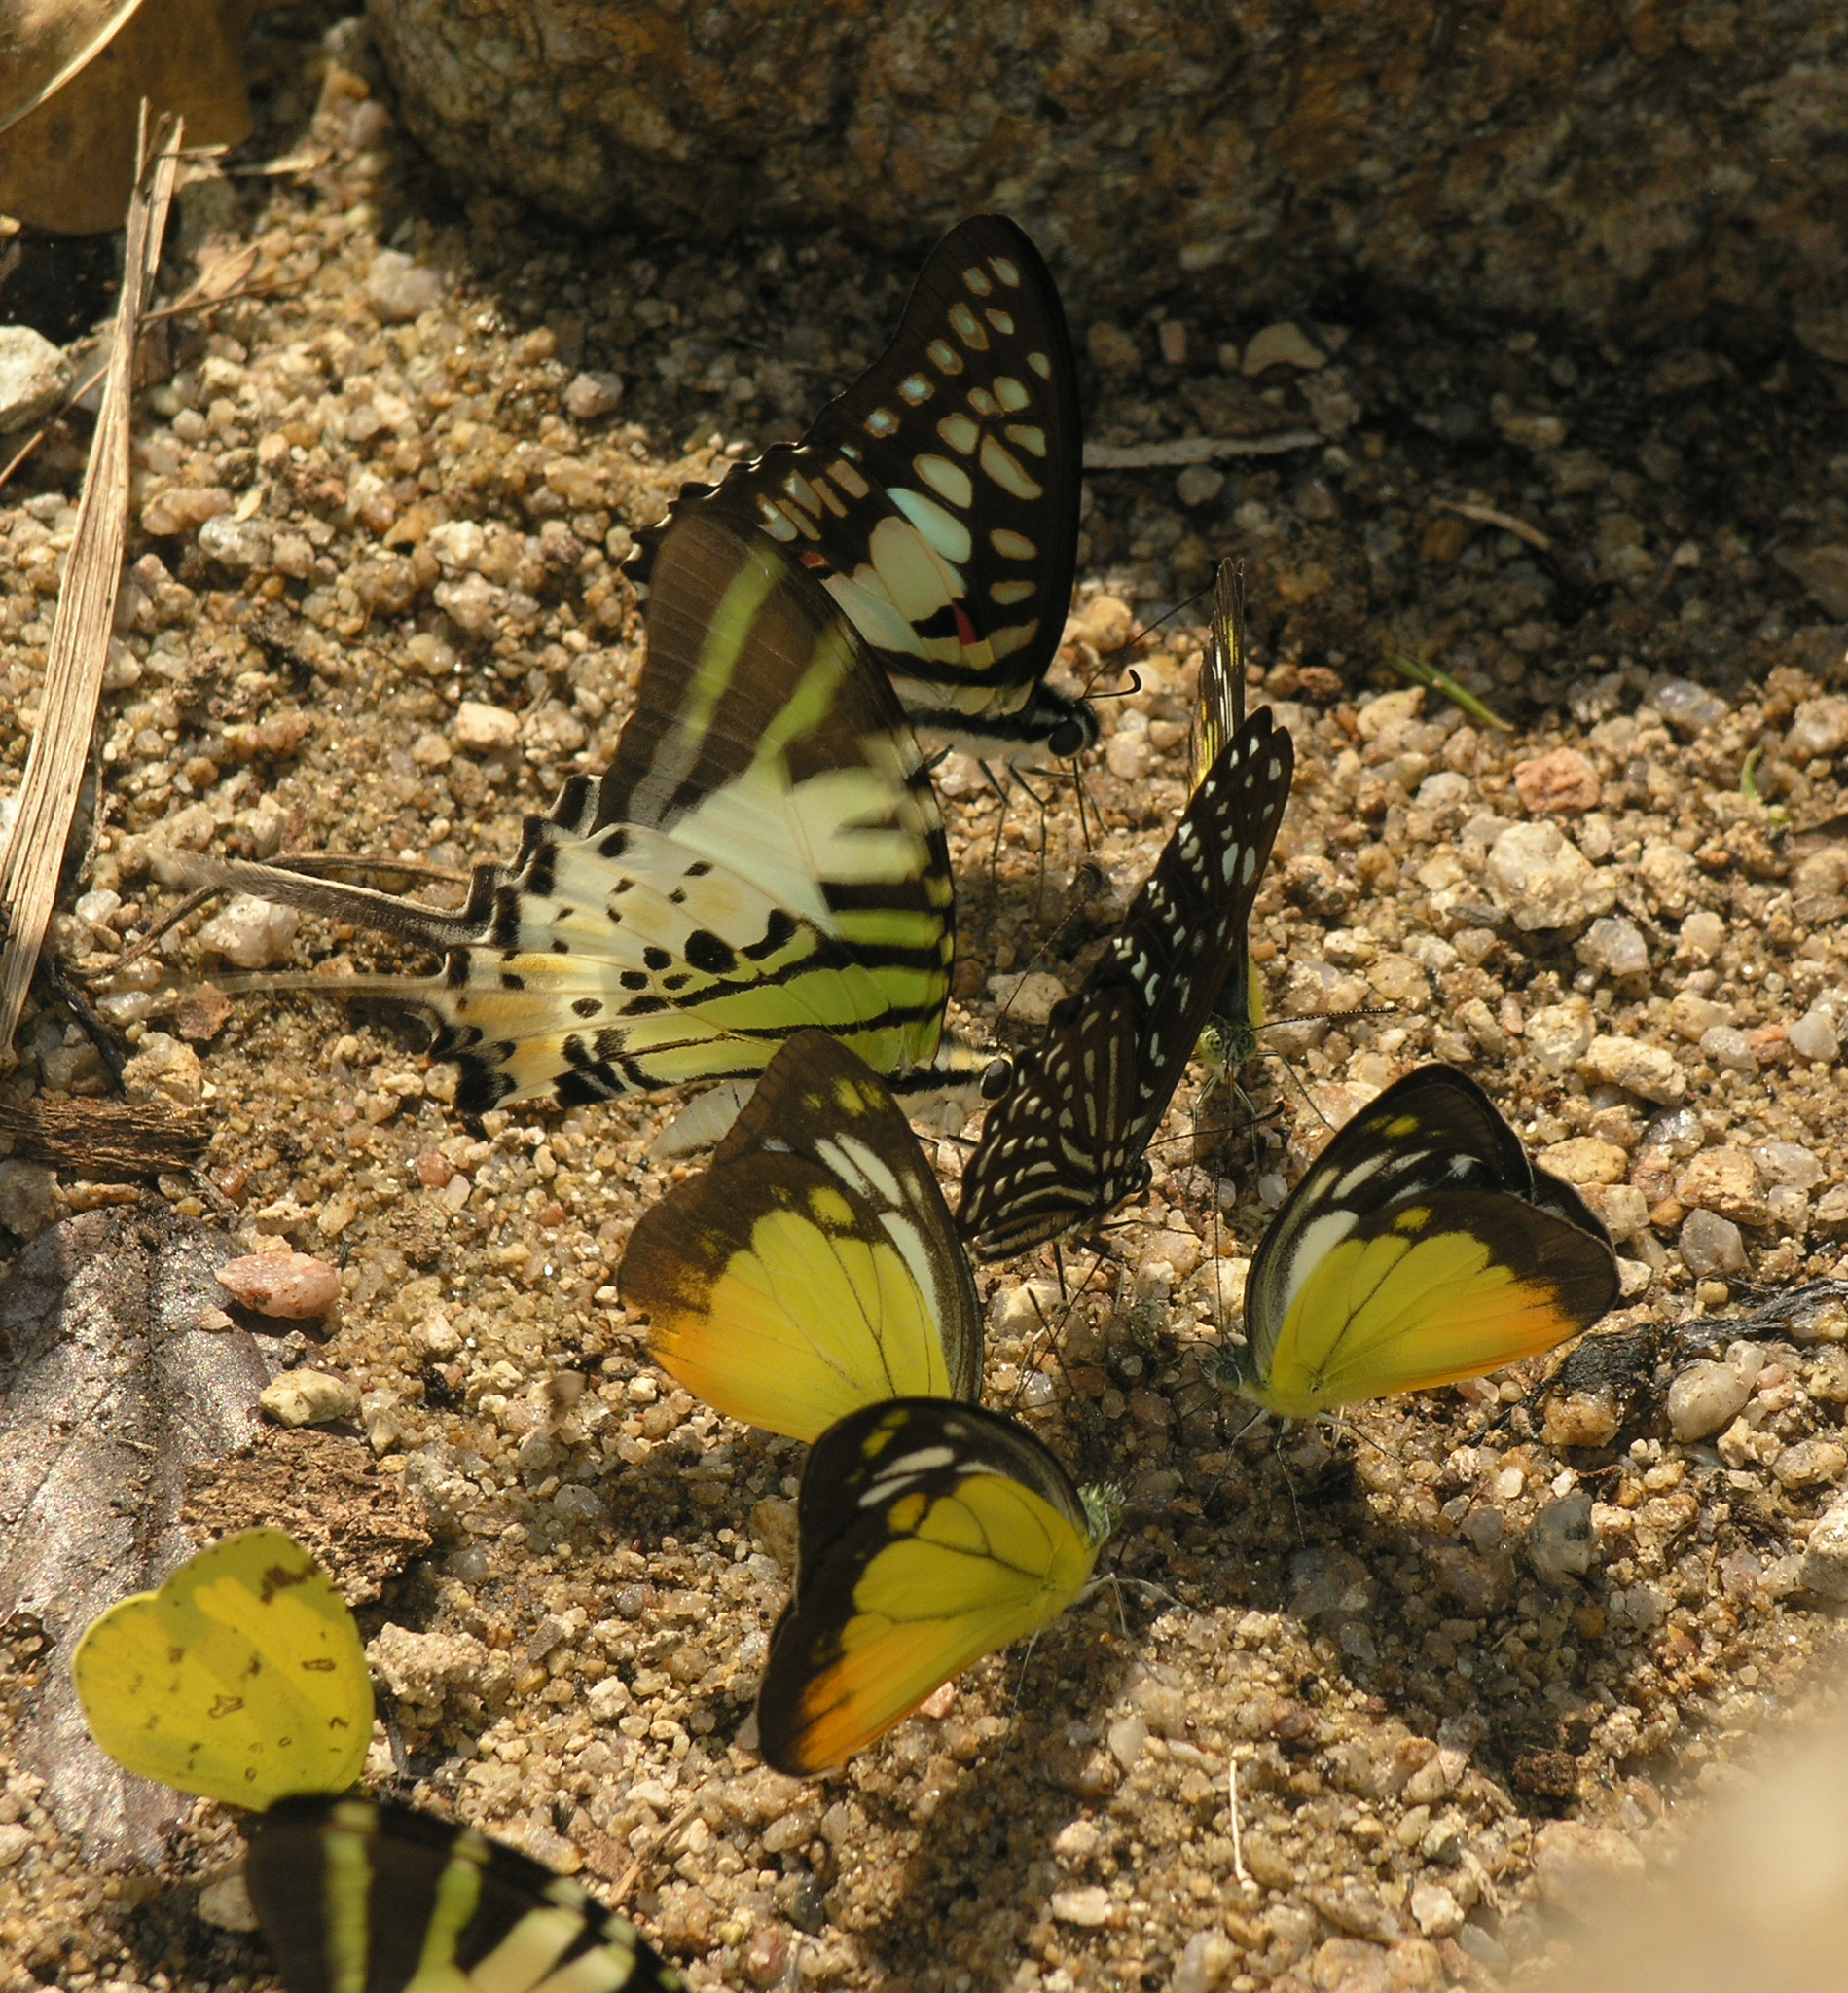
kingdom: Animalia
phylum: Arthropoda
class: Insecta
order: Lepidoptera
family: Papilionidae
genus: Graphium
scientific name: Graphium macareus
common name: Lesser zebra
